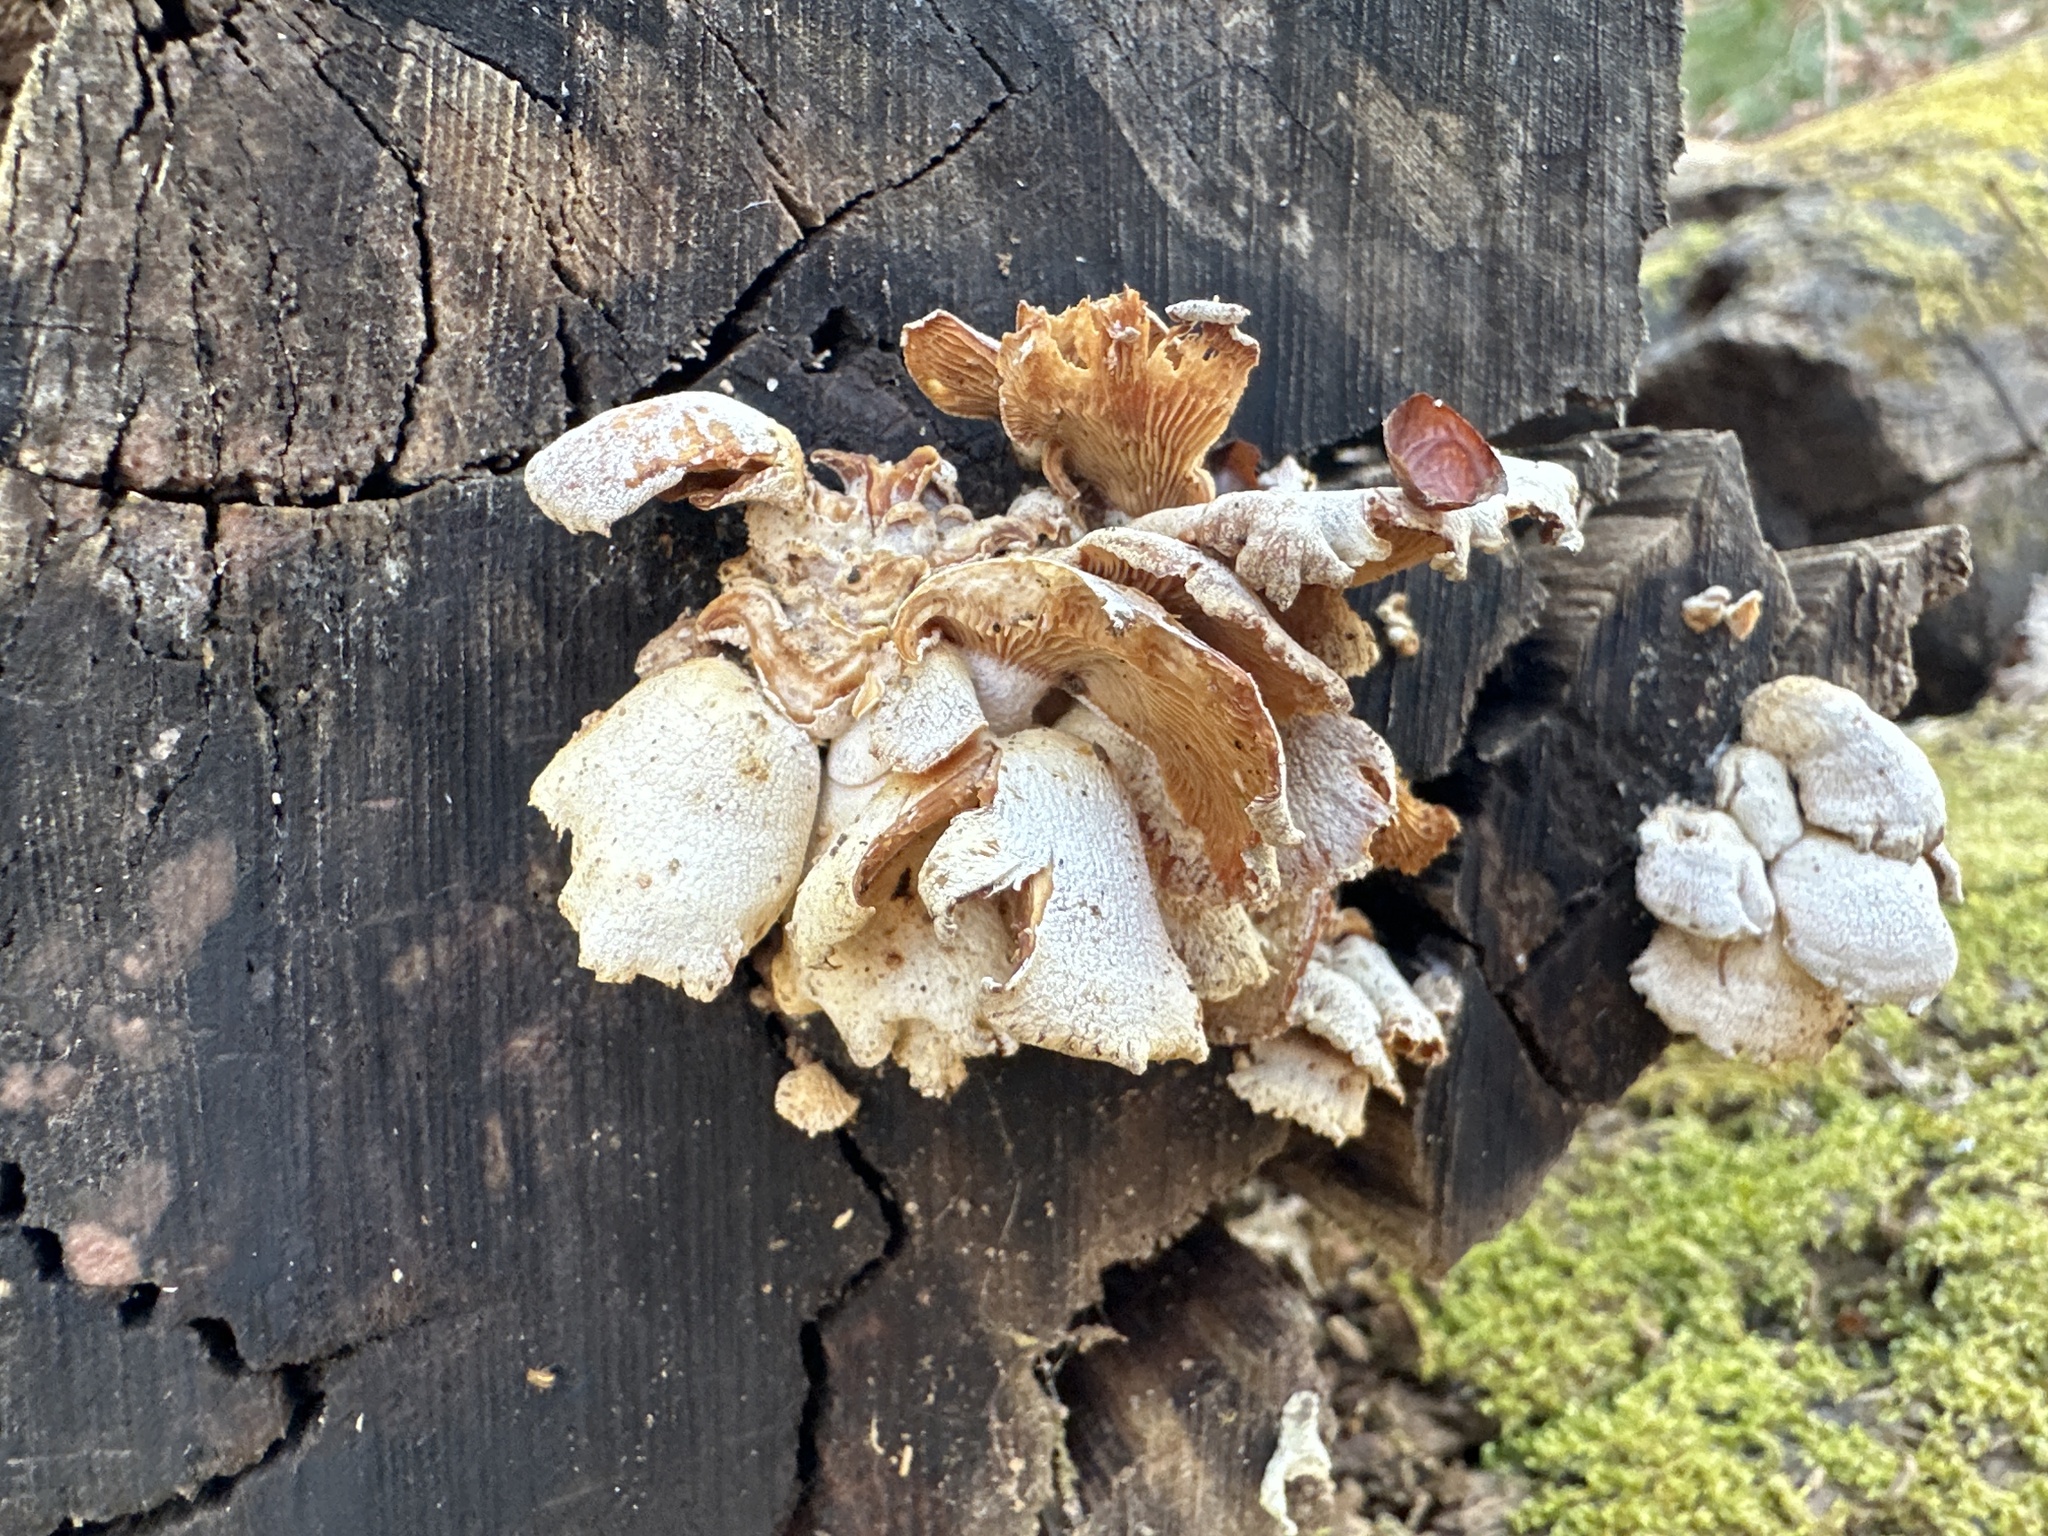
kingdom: Fungi
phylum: Basidiomycota
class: Agaricomycetes
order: Agaricales
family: Mycenaceae
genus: Panellus
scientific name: Panellus stipticus
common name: Bitter oysterling
